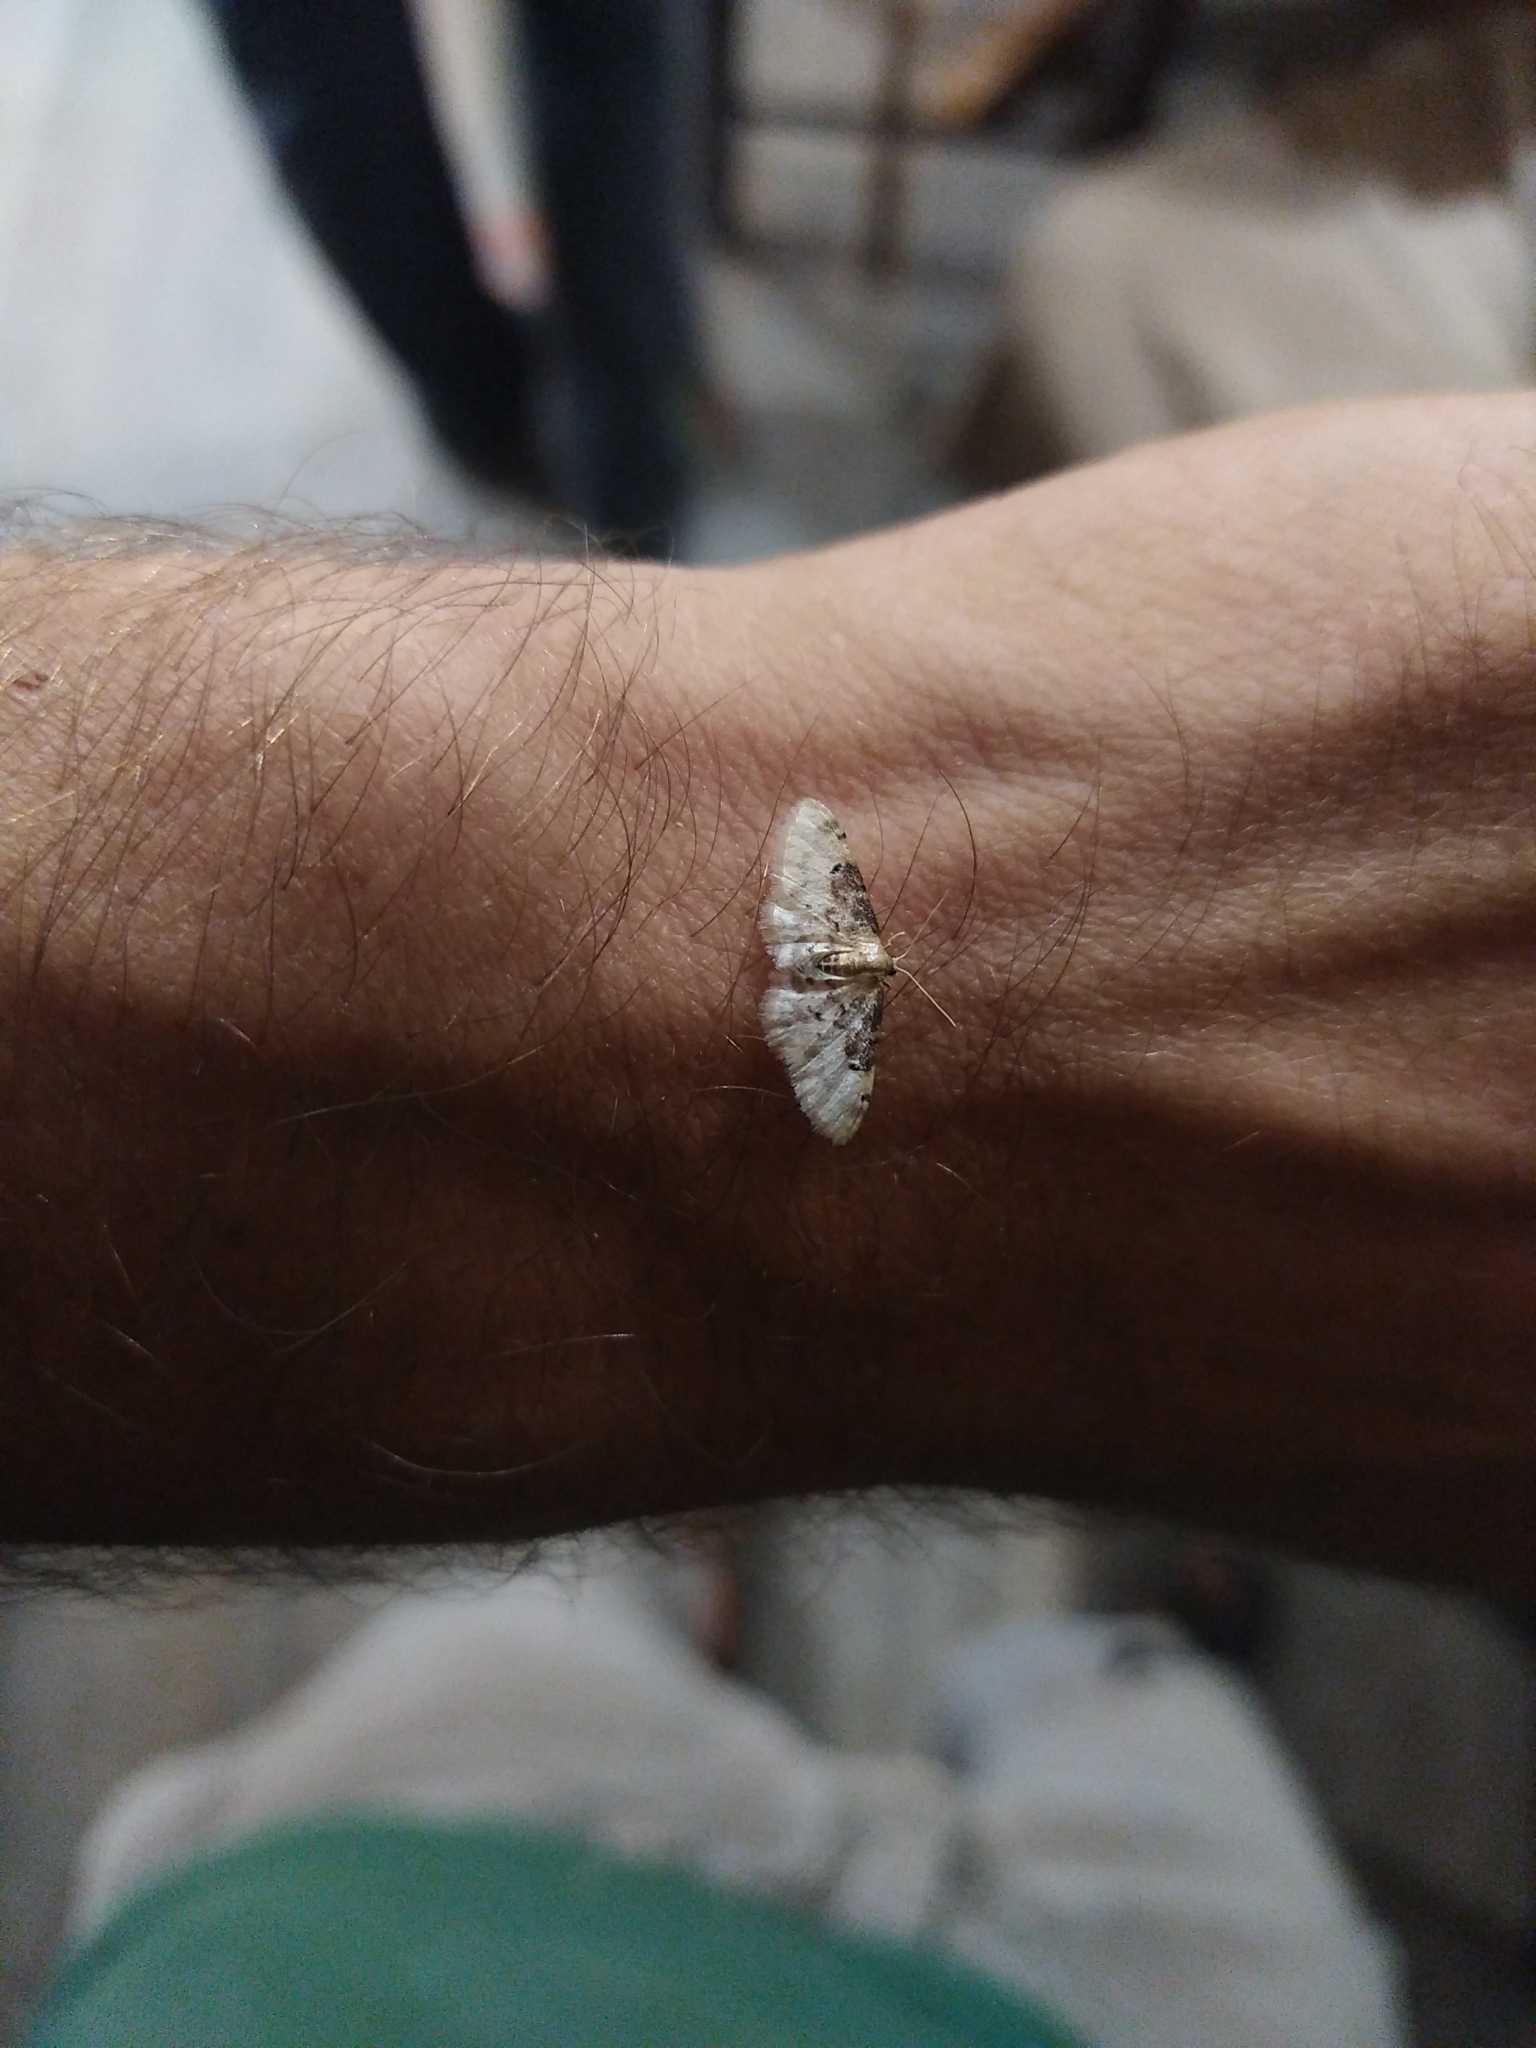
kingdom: Animalia
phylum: Arthropoda
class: Insecta
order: Lepidoptera
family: Geometridae
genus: Idaea
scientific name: Idaea filicata
